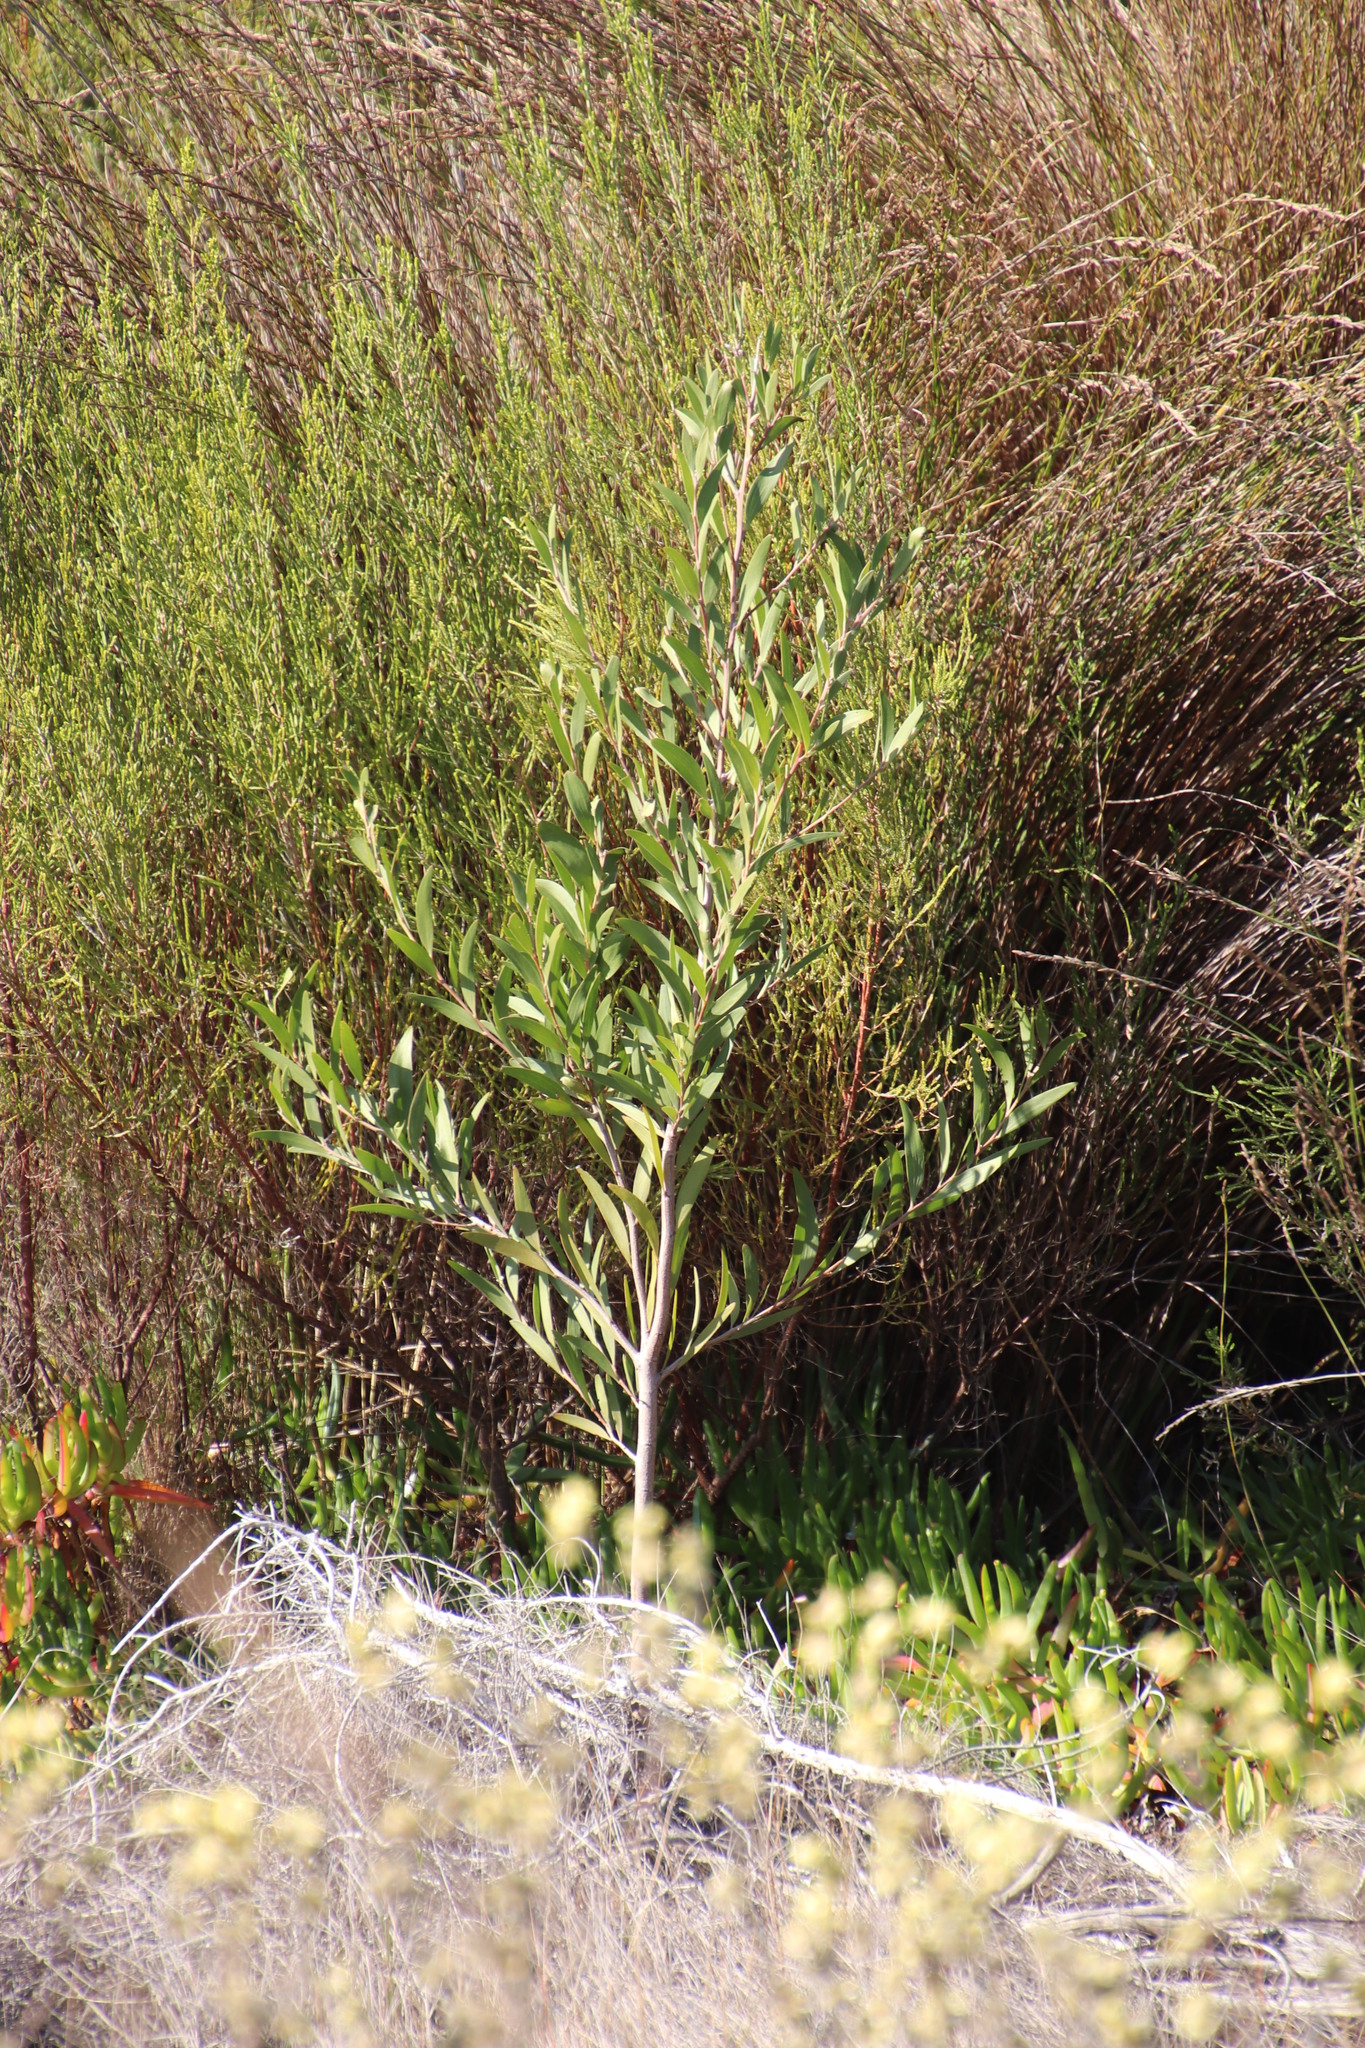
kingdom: Plantae
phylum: Tracheophyta
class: Magnoliopsida
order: Fabales
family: Fabaceae
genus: Acacia
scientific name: Acacia melanoxylon
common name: Blackwood
